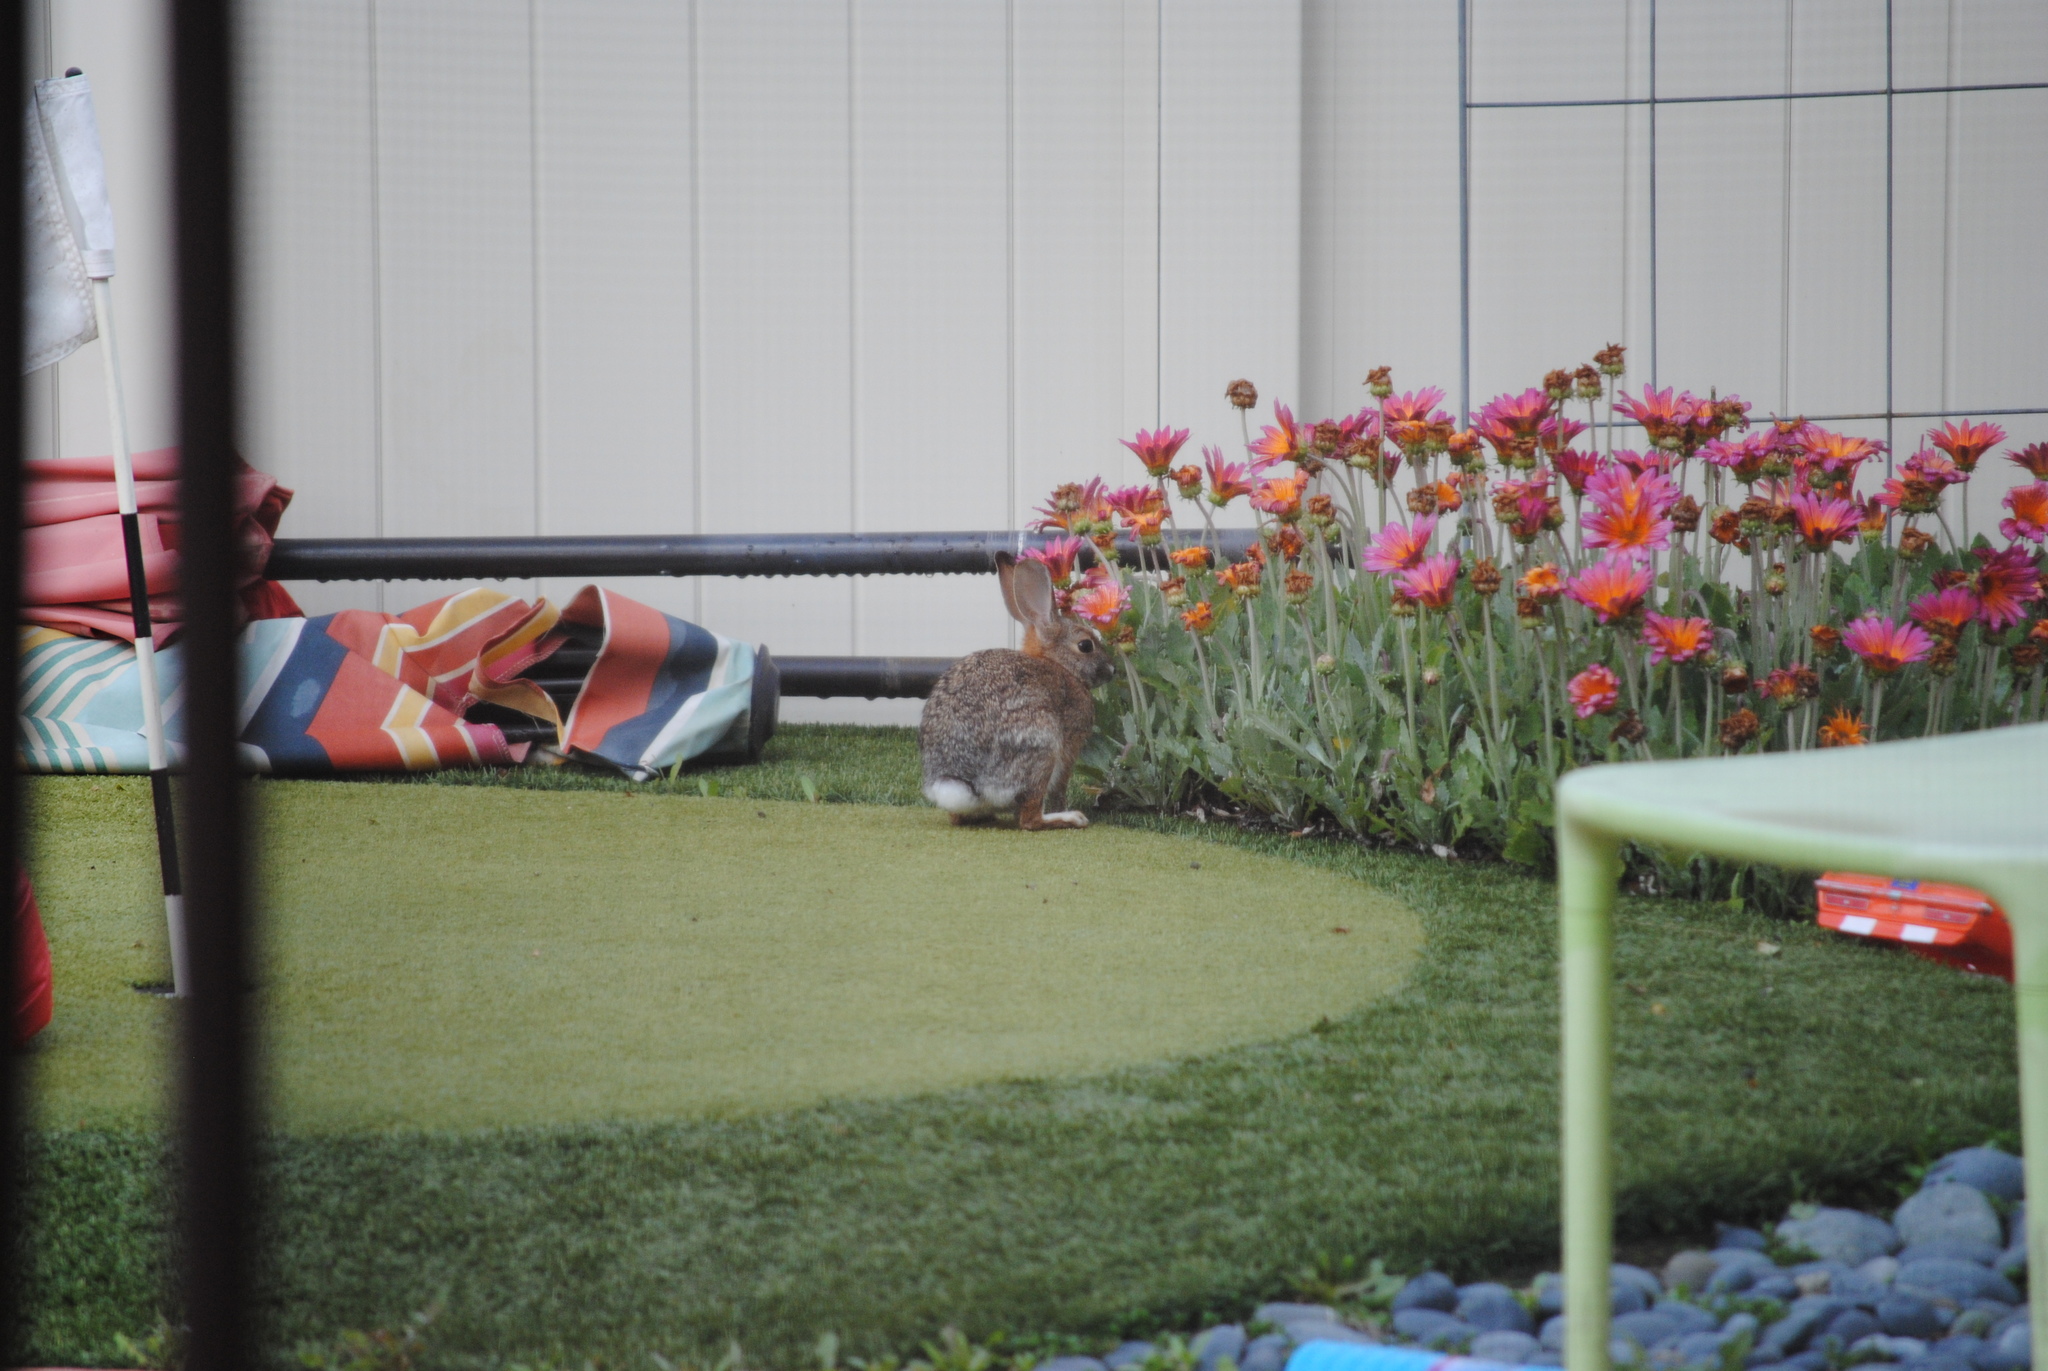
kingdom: Animalia
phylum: Chordata
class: Mammalia
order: Lagomorpha
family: Leporidae
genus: Sylvilagus
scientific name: Sylvilagus audubonii
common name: Desert cottontail
